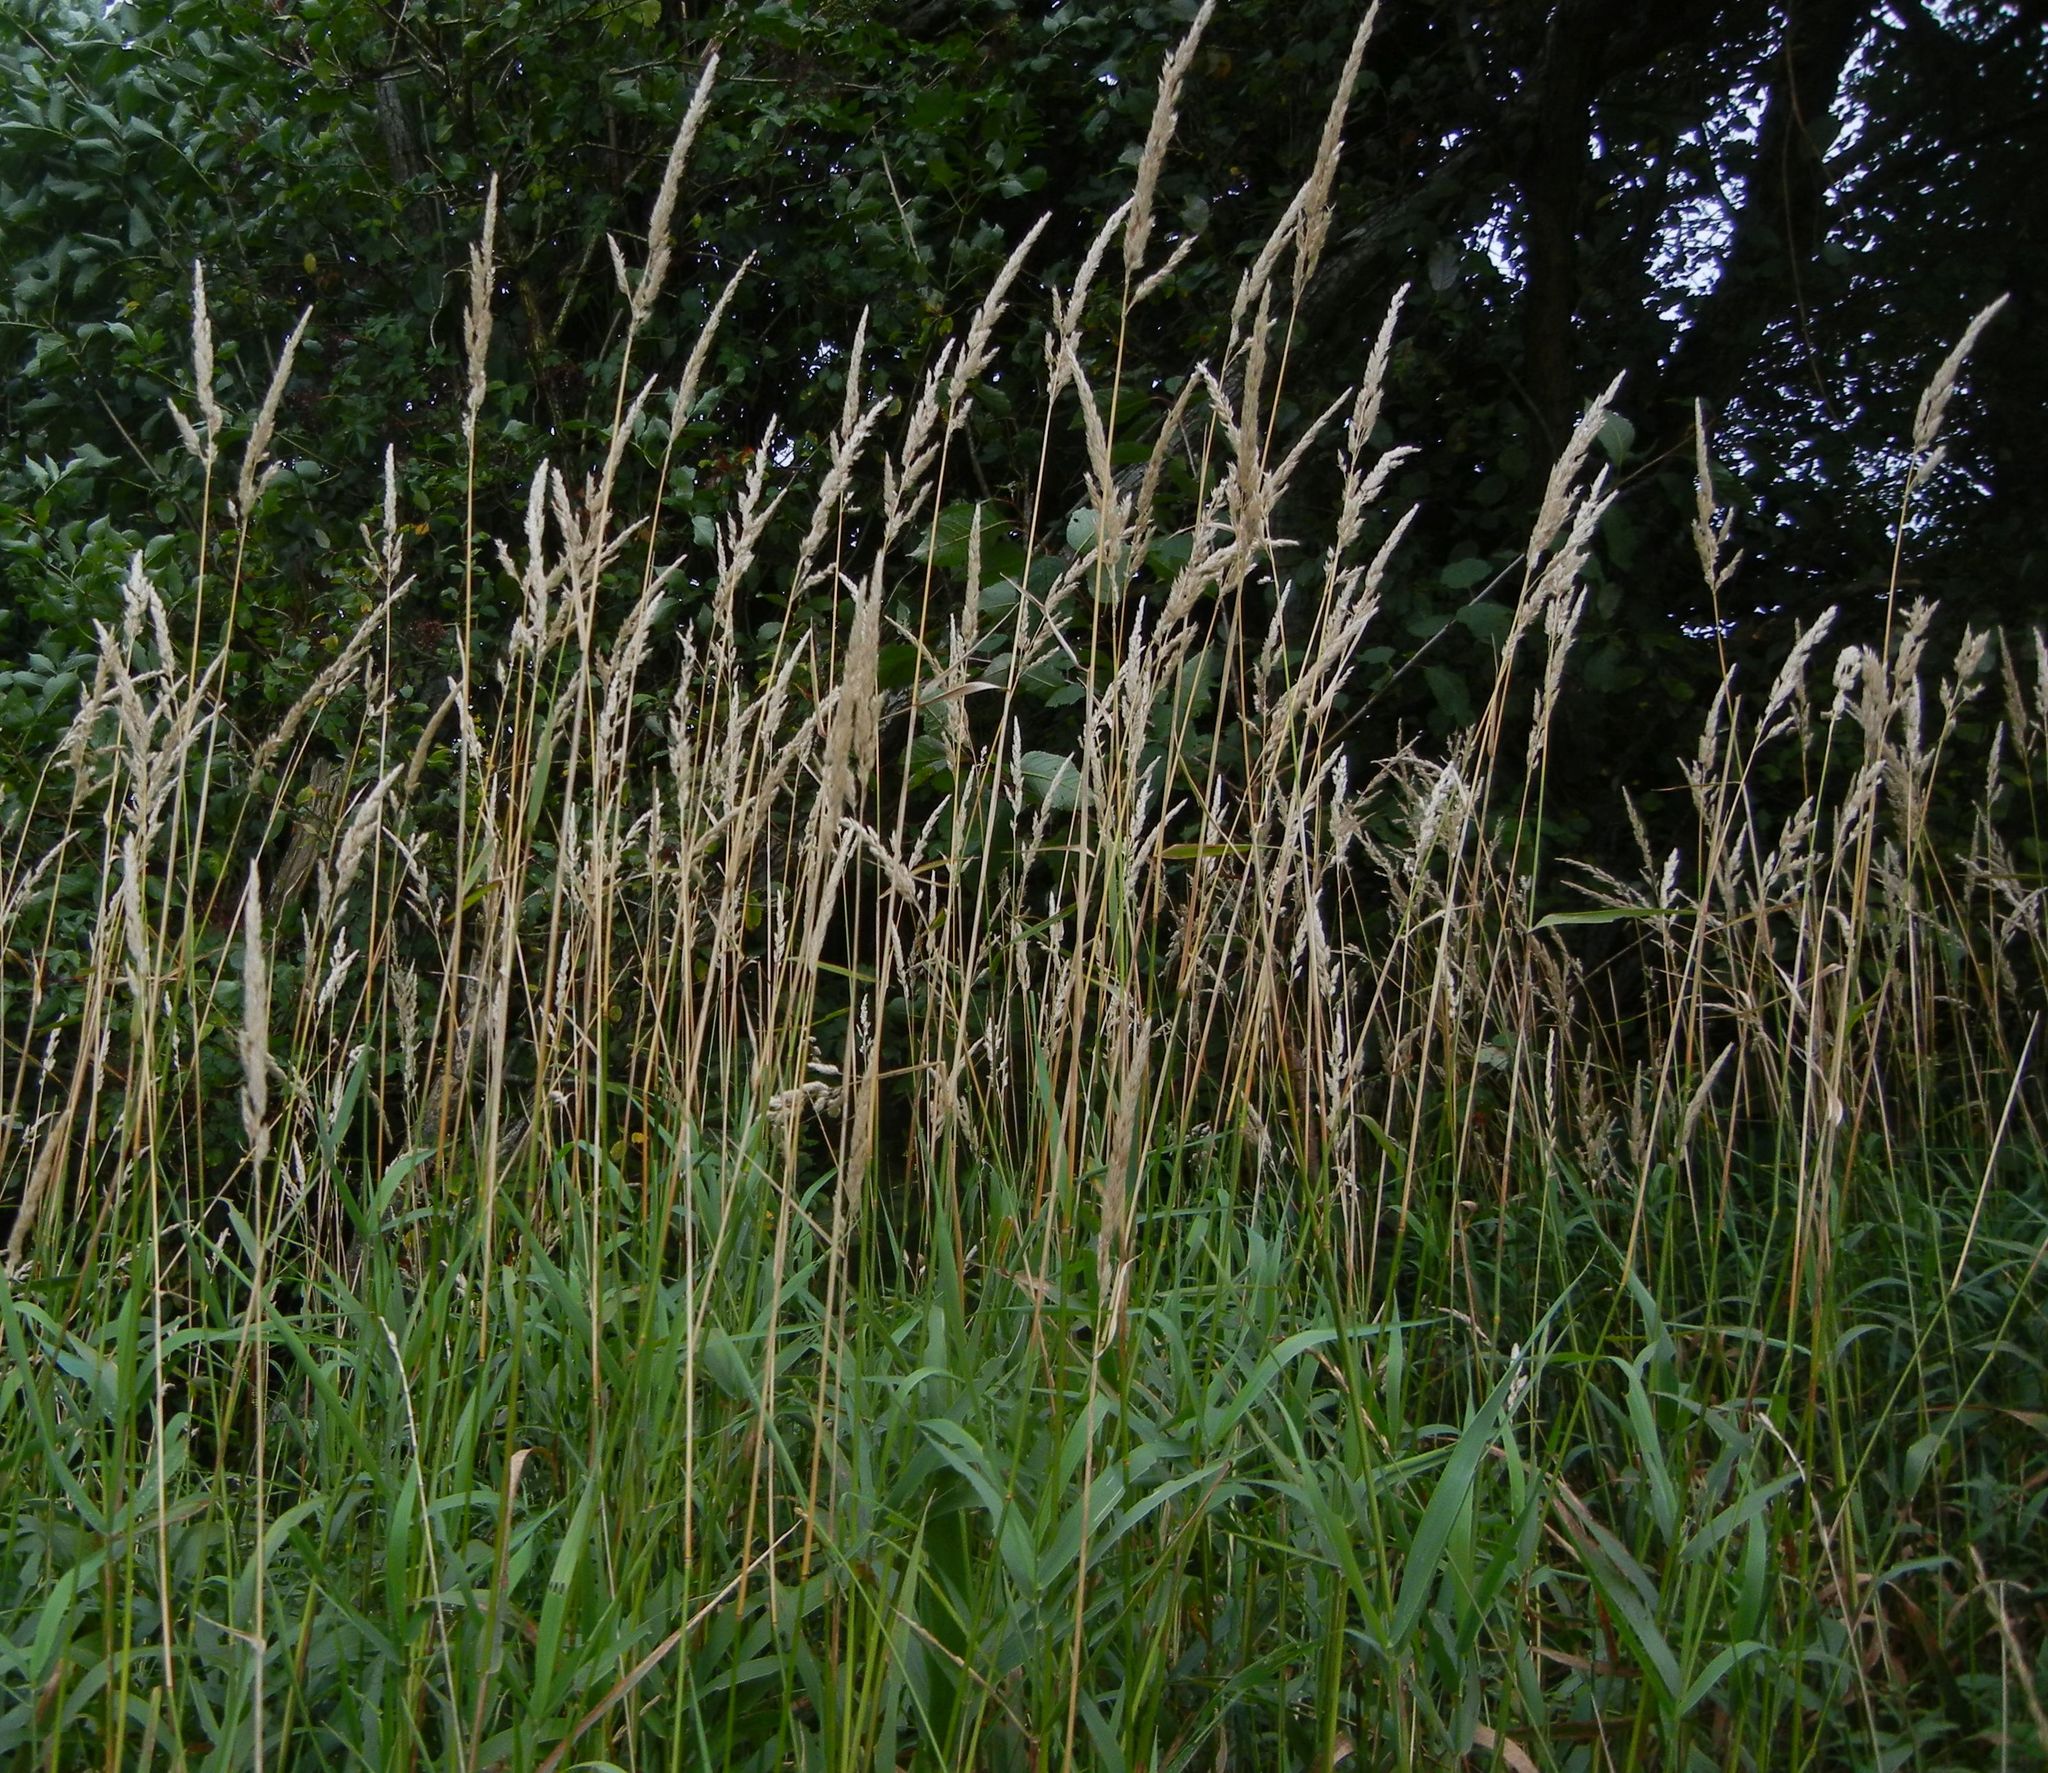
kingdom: Plantae
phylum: Tracheophyta
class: Liliopsida
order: Poales
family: Poaceae
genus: Phalaris
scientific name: Phalaris arundinacea
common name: Reed canary-grass
